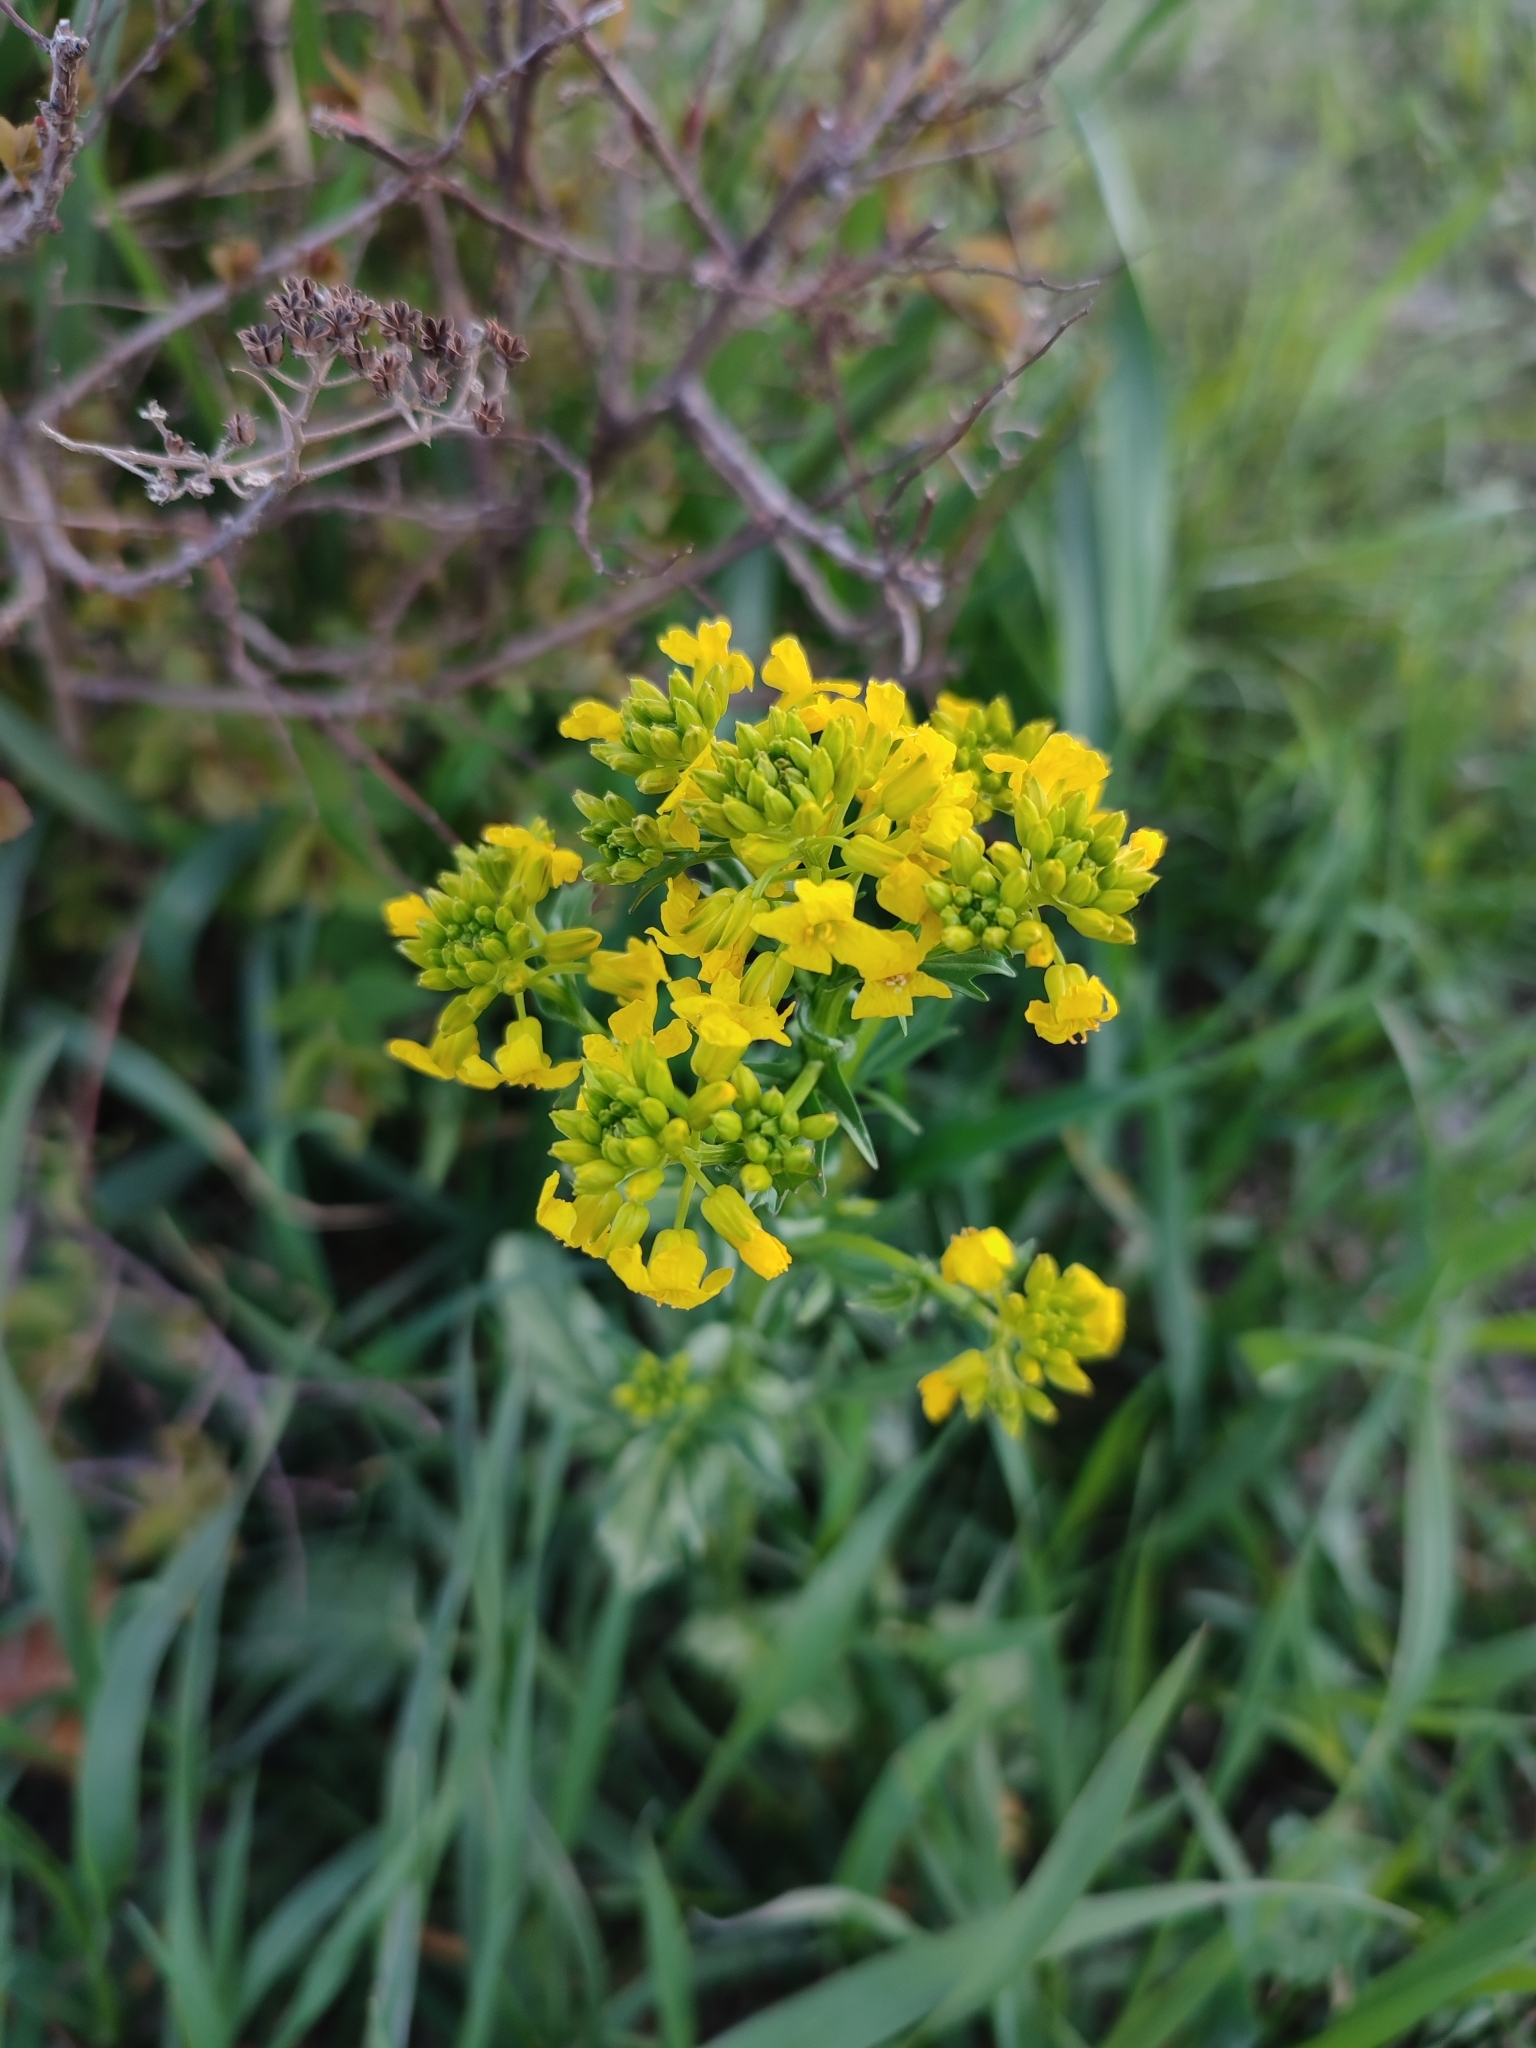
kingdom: Plantae
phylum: Tracheophyta
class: Magnoliopsida
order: Brassicales
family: Brassicaceae
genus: Barbarea
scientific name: Barbarea vulgaris
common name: Cressy-greens
